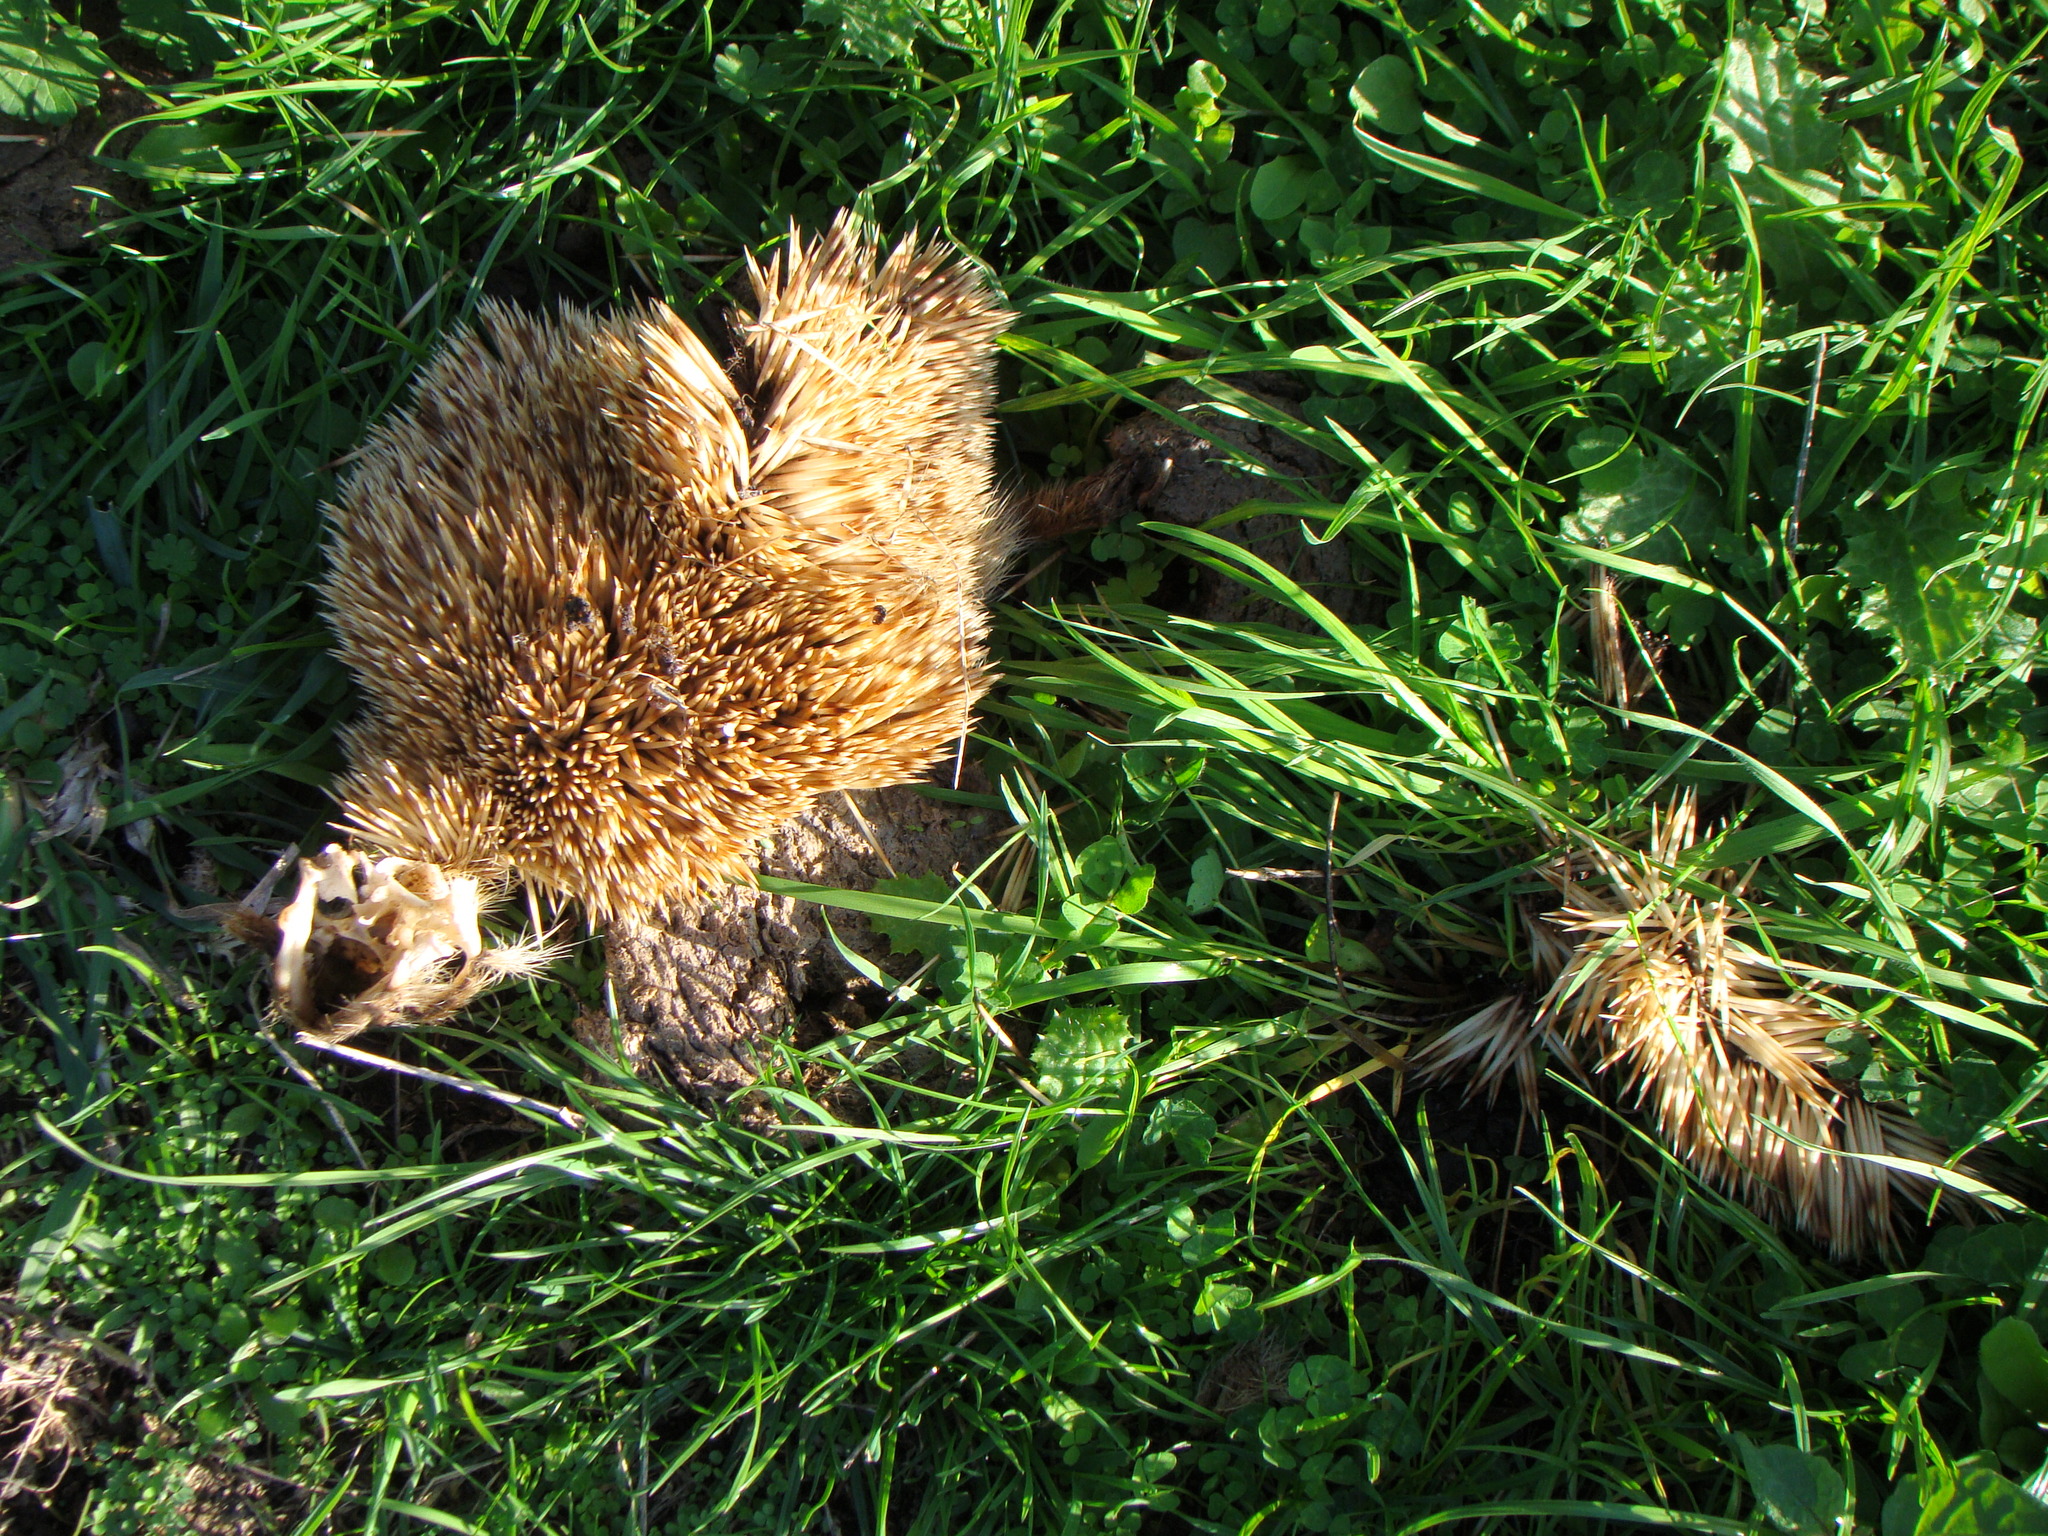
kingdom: Animalia
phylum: Chordata
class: Mammalia
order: Erinaceomorpha
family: Erinaceidae
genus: Erinaceus
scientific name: Erinaceus europaeus
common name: West european hedgehog
